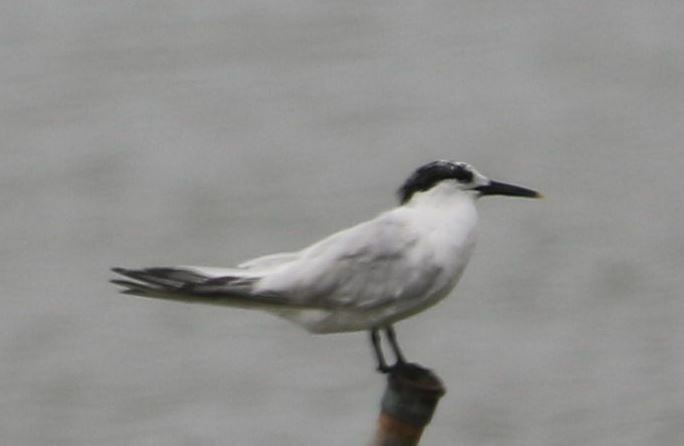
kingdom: Animalia
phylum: Chordata
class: Aves
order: Charadriiformes
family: Laridae
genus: Thalasseus
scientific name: Thalasseus sandvicensis
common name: Sandwich tern
